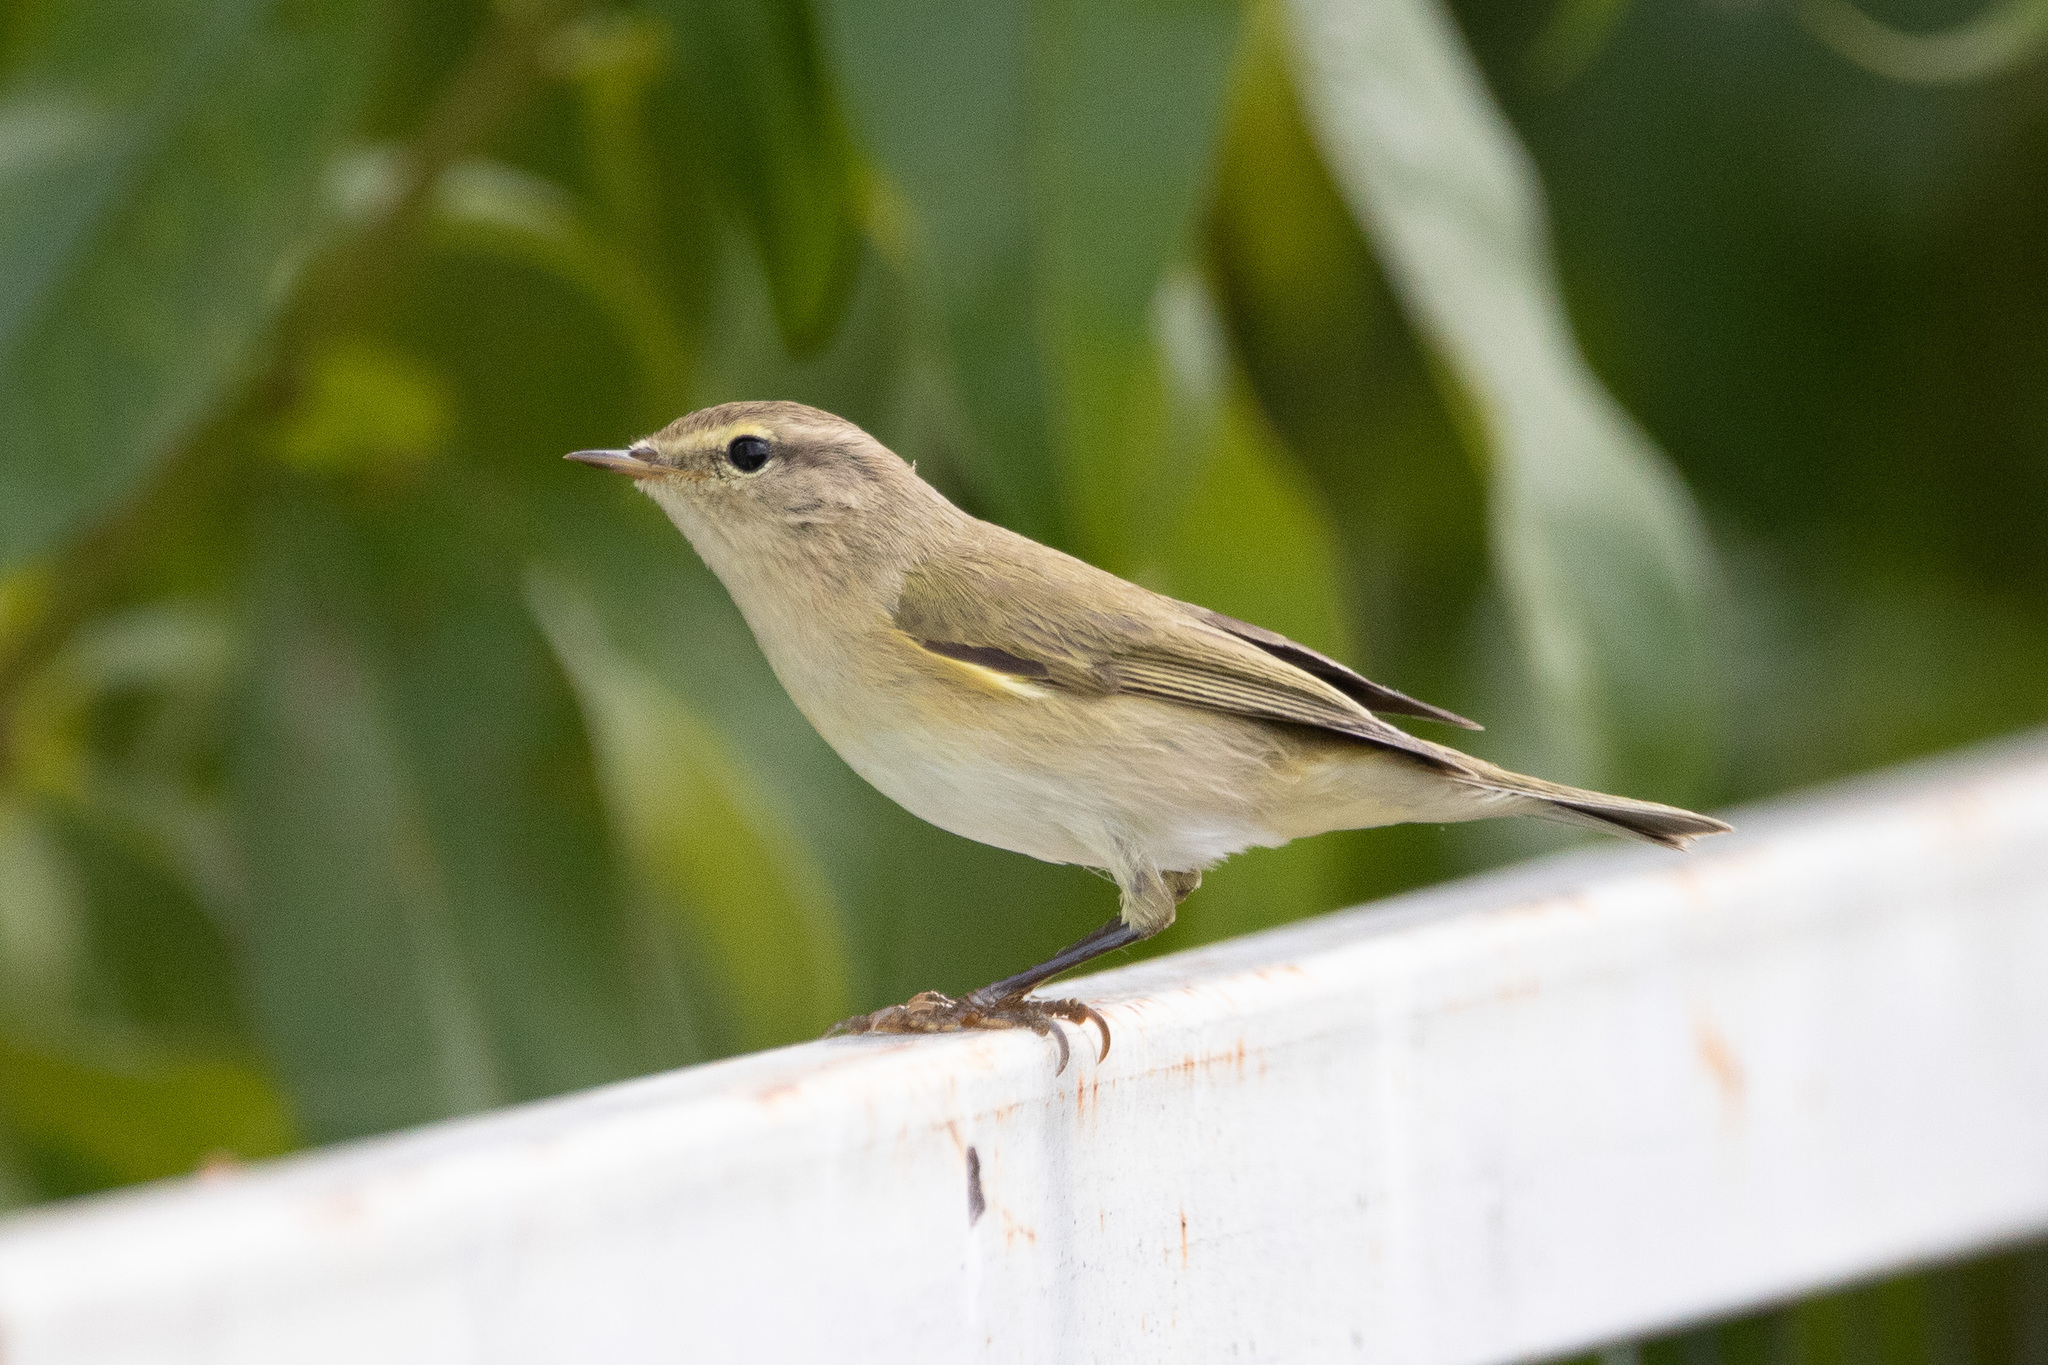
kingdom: Animalia
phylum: Chordata
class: Aves
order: Passeriformes
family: Phylloscopidae
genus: Phylloscopus
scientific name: Phylloscopus collybita
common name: Common chiffchaff
